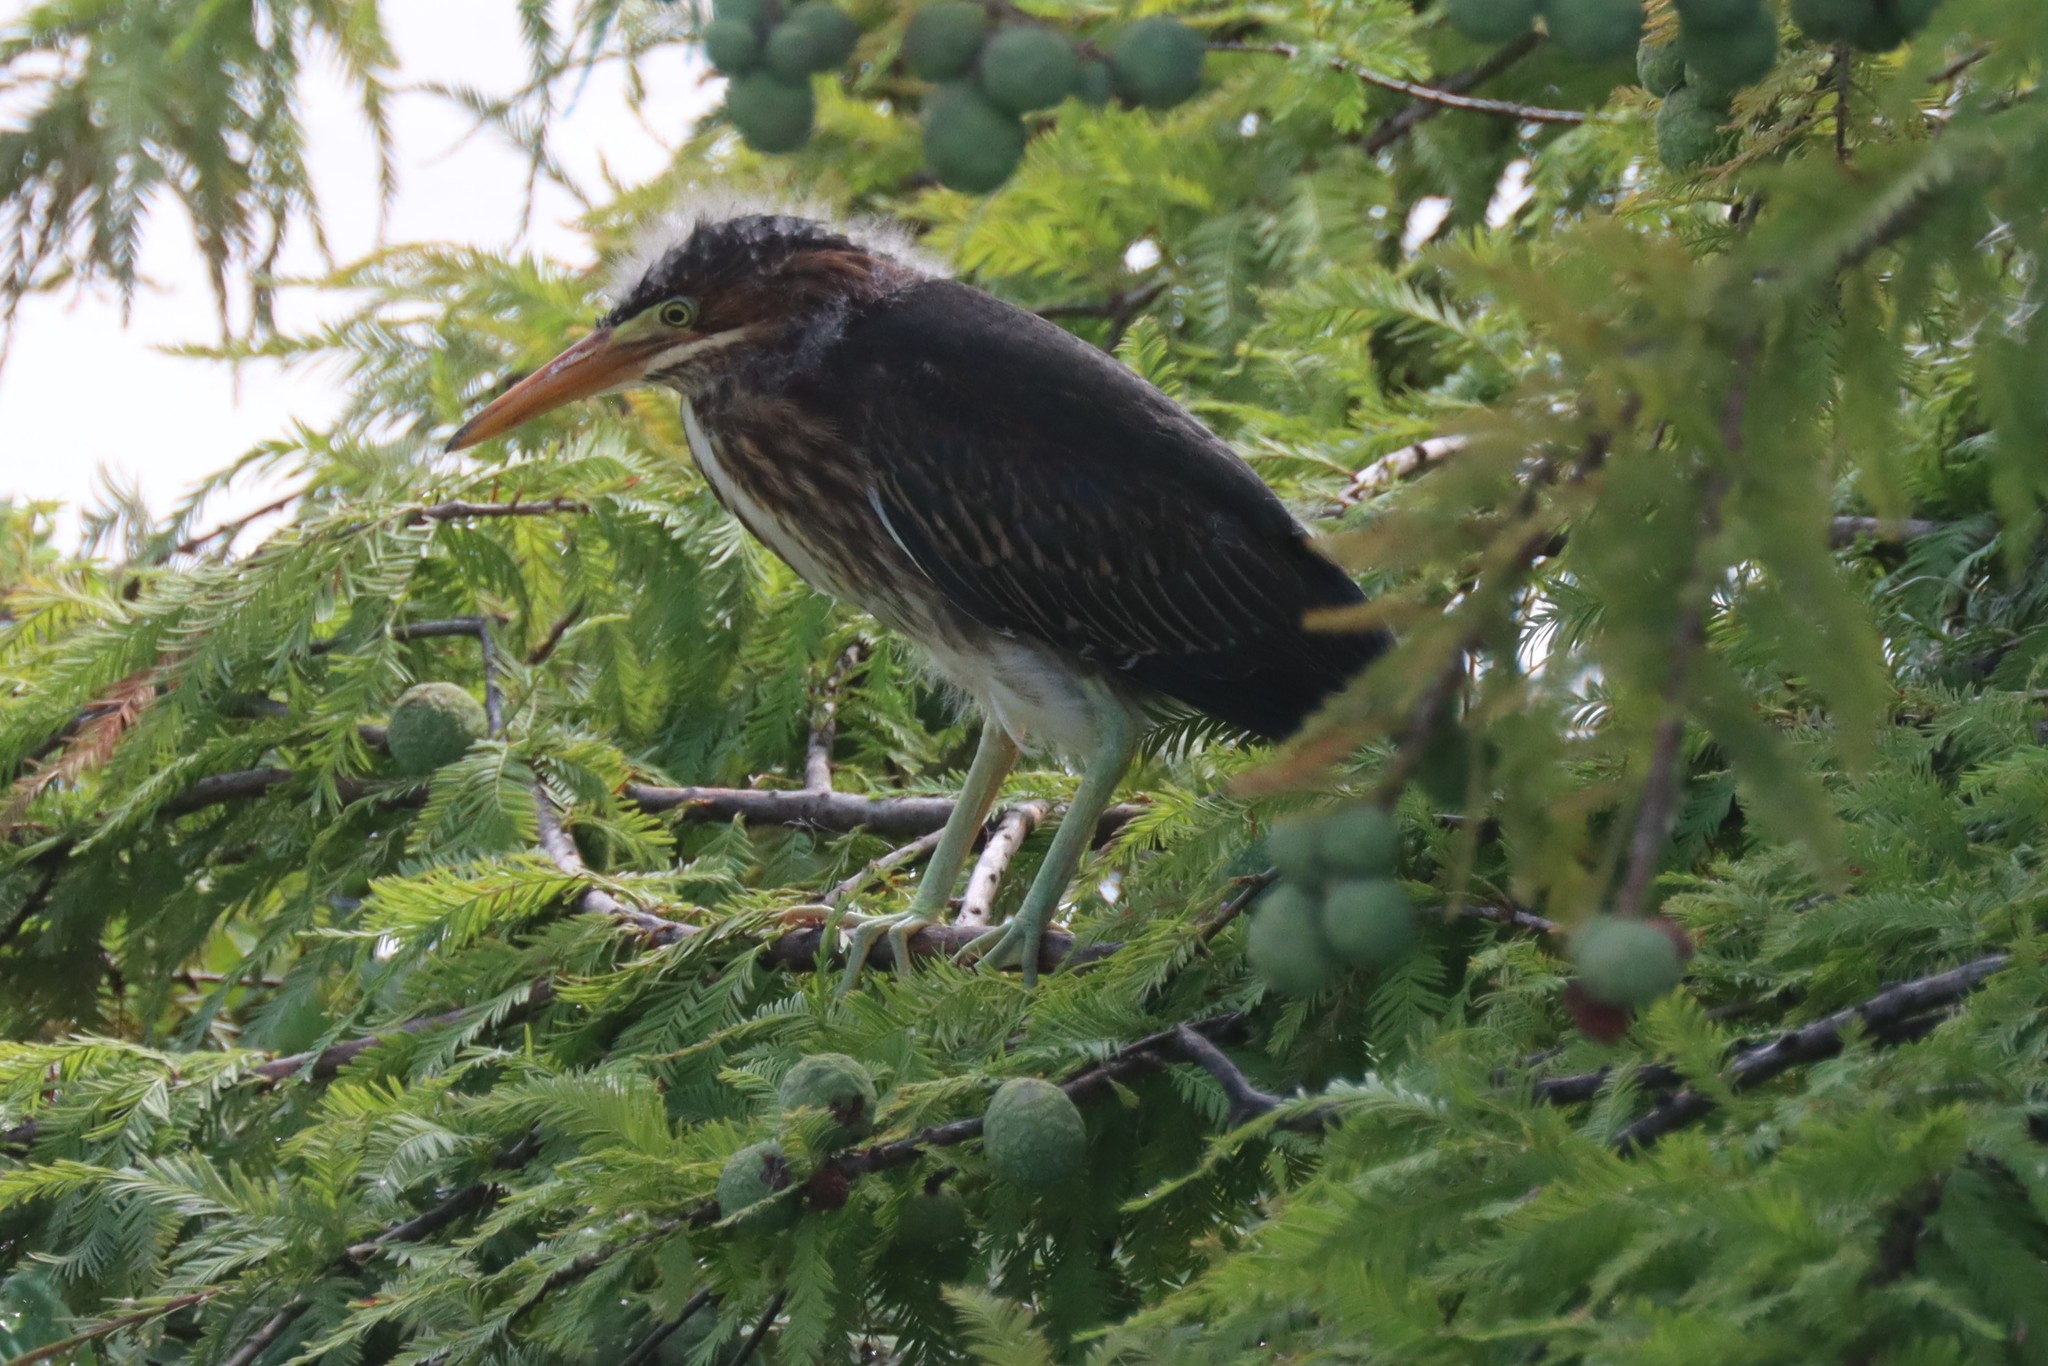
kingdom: Animalia
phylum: Chordata
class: Aves
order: Pelecaniformes
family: Ardeidae
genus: Butorides
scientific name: Butorides virescens
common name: Green heron
